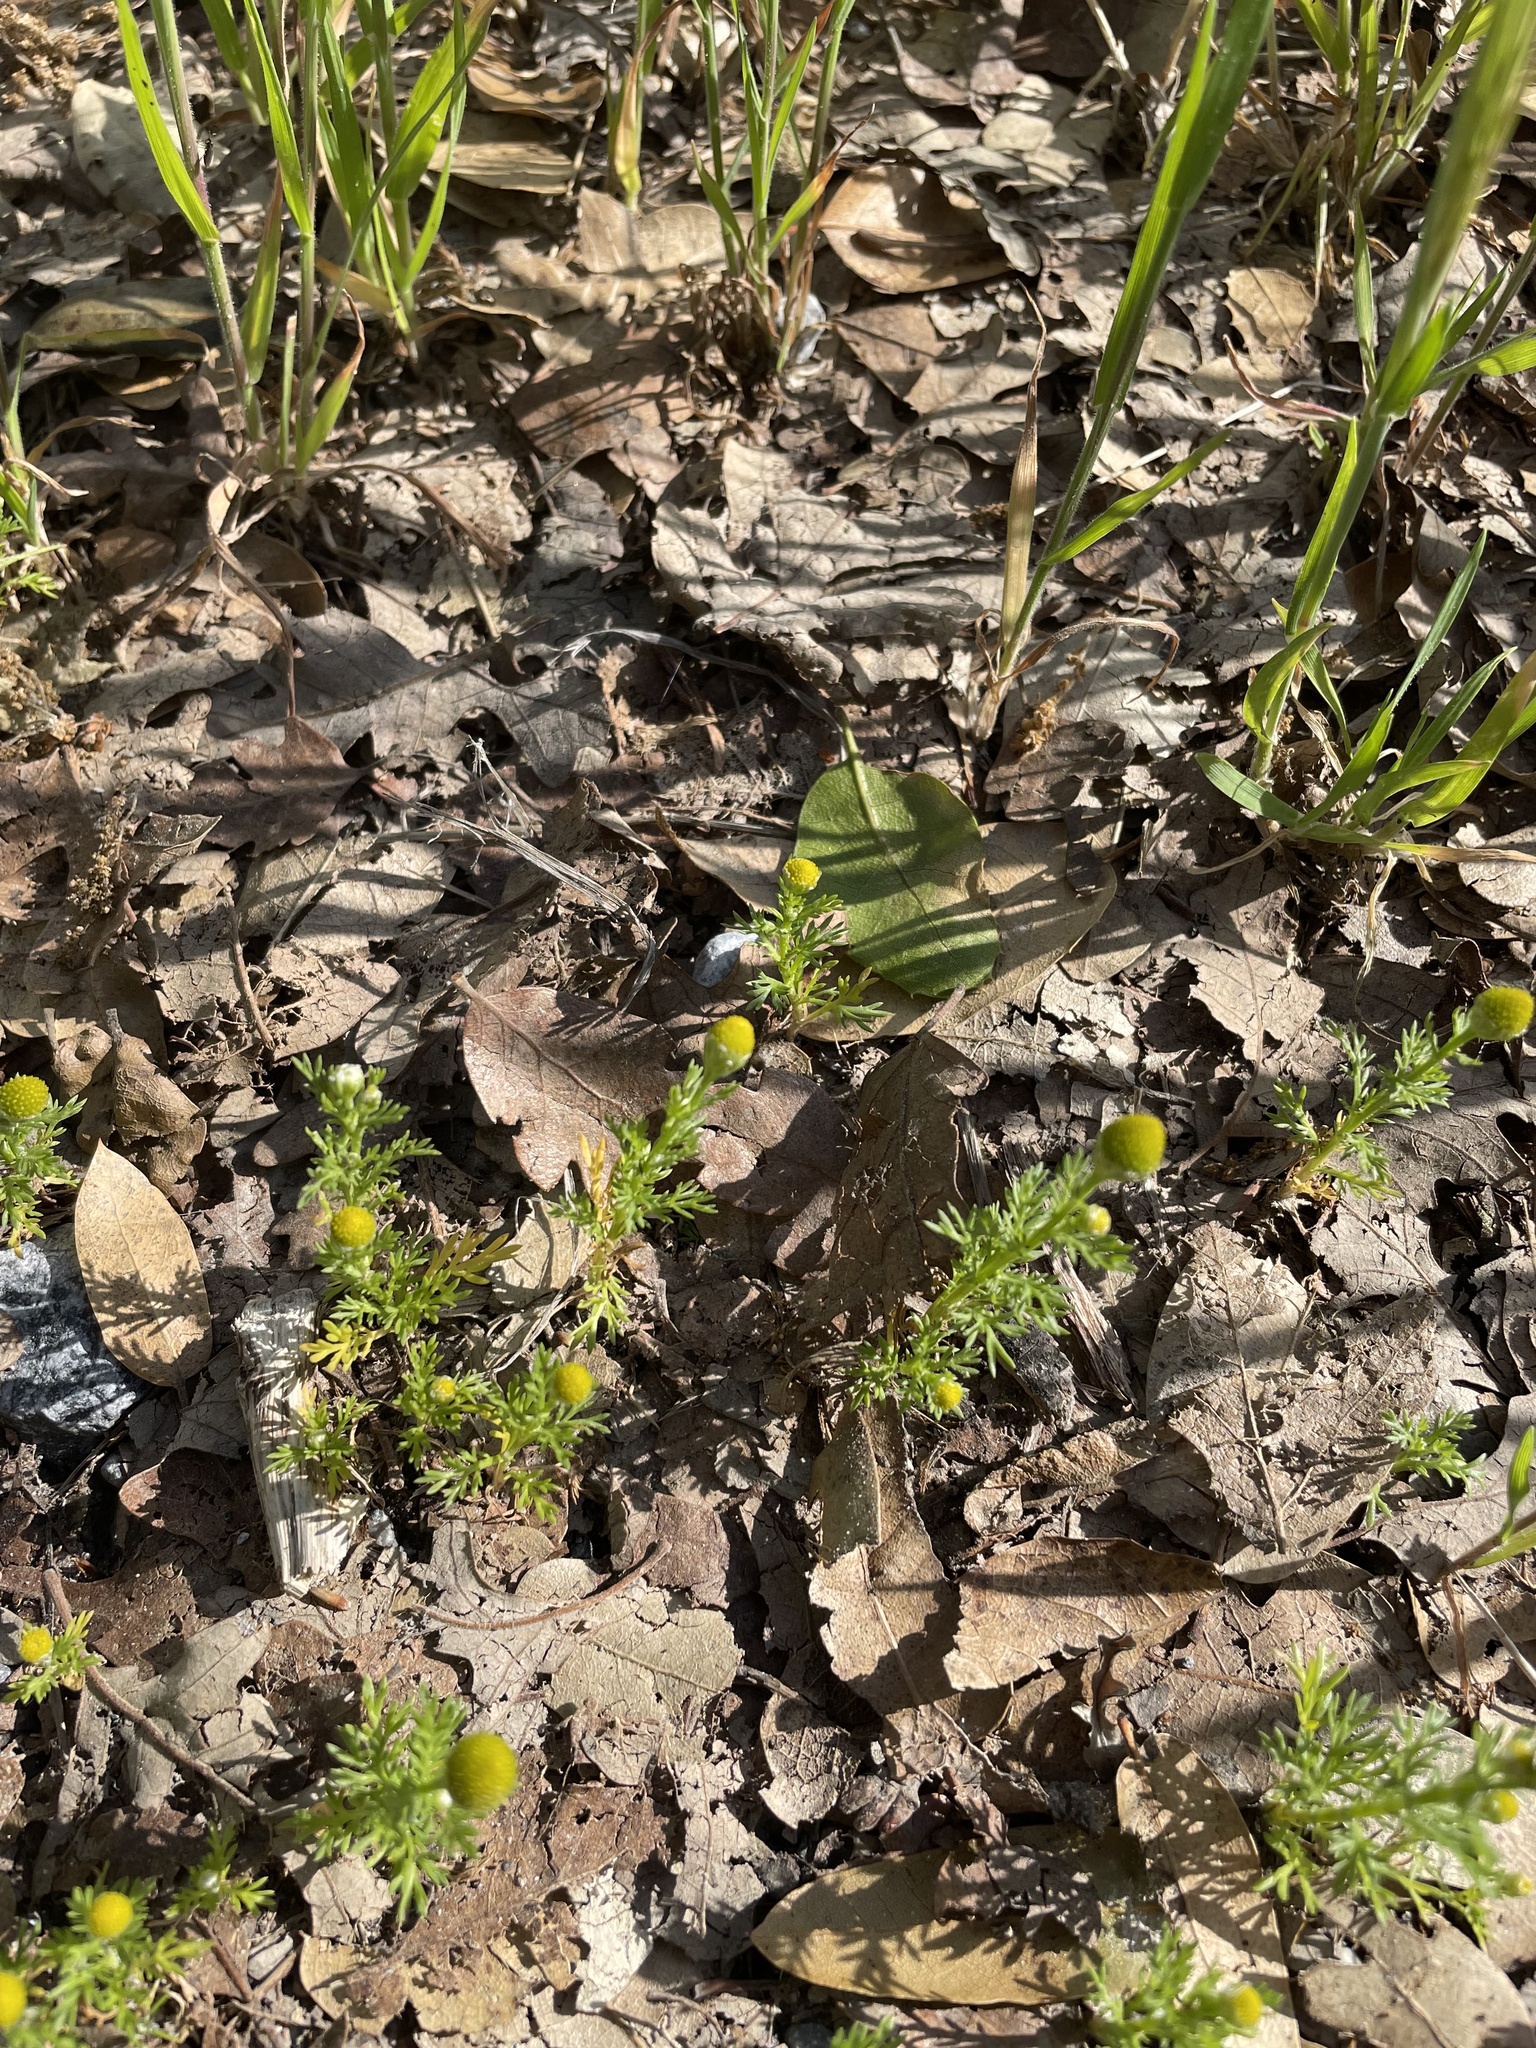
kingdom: Plantae
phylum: Tracheophyta
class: Magnoliopsida
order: Asterales
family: Asteraceae
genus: Matricaria
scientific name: Matricaria discoidea
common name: Disc mayweed
